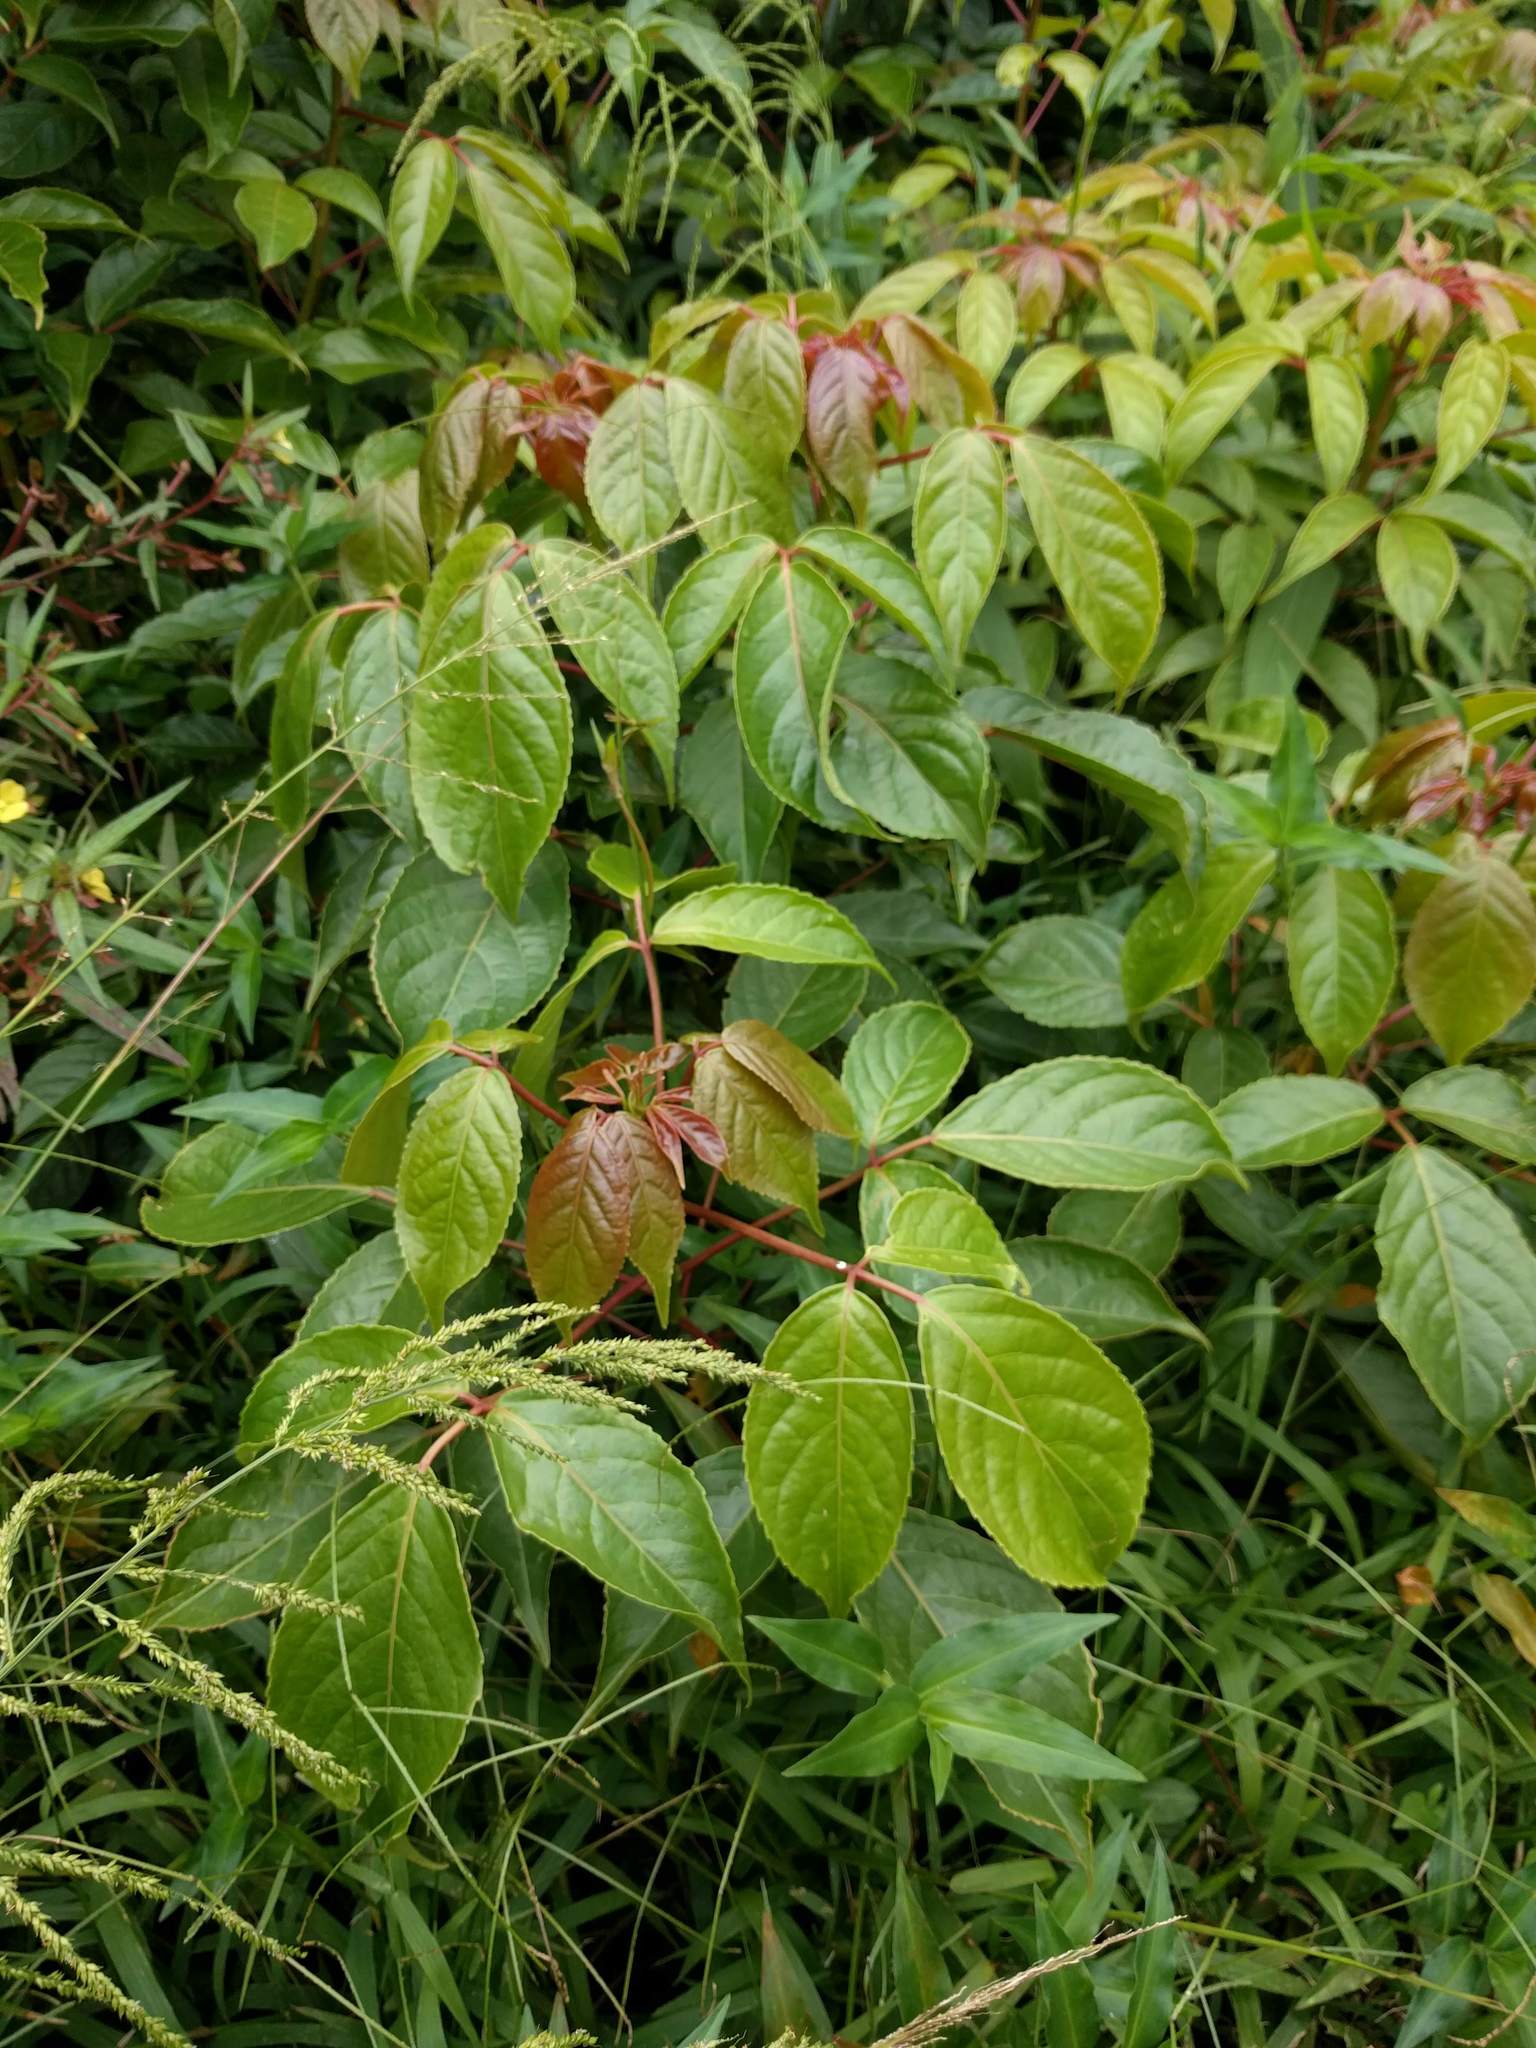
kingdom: Plantae
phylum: Tracheophyta
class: Magnoliopsida
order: Malpighiales
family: Phyllanthaceae
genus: Bischofia
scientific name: Bischofia javanica
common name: Javanese bishopwood
